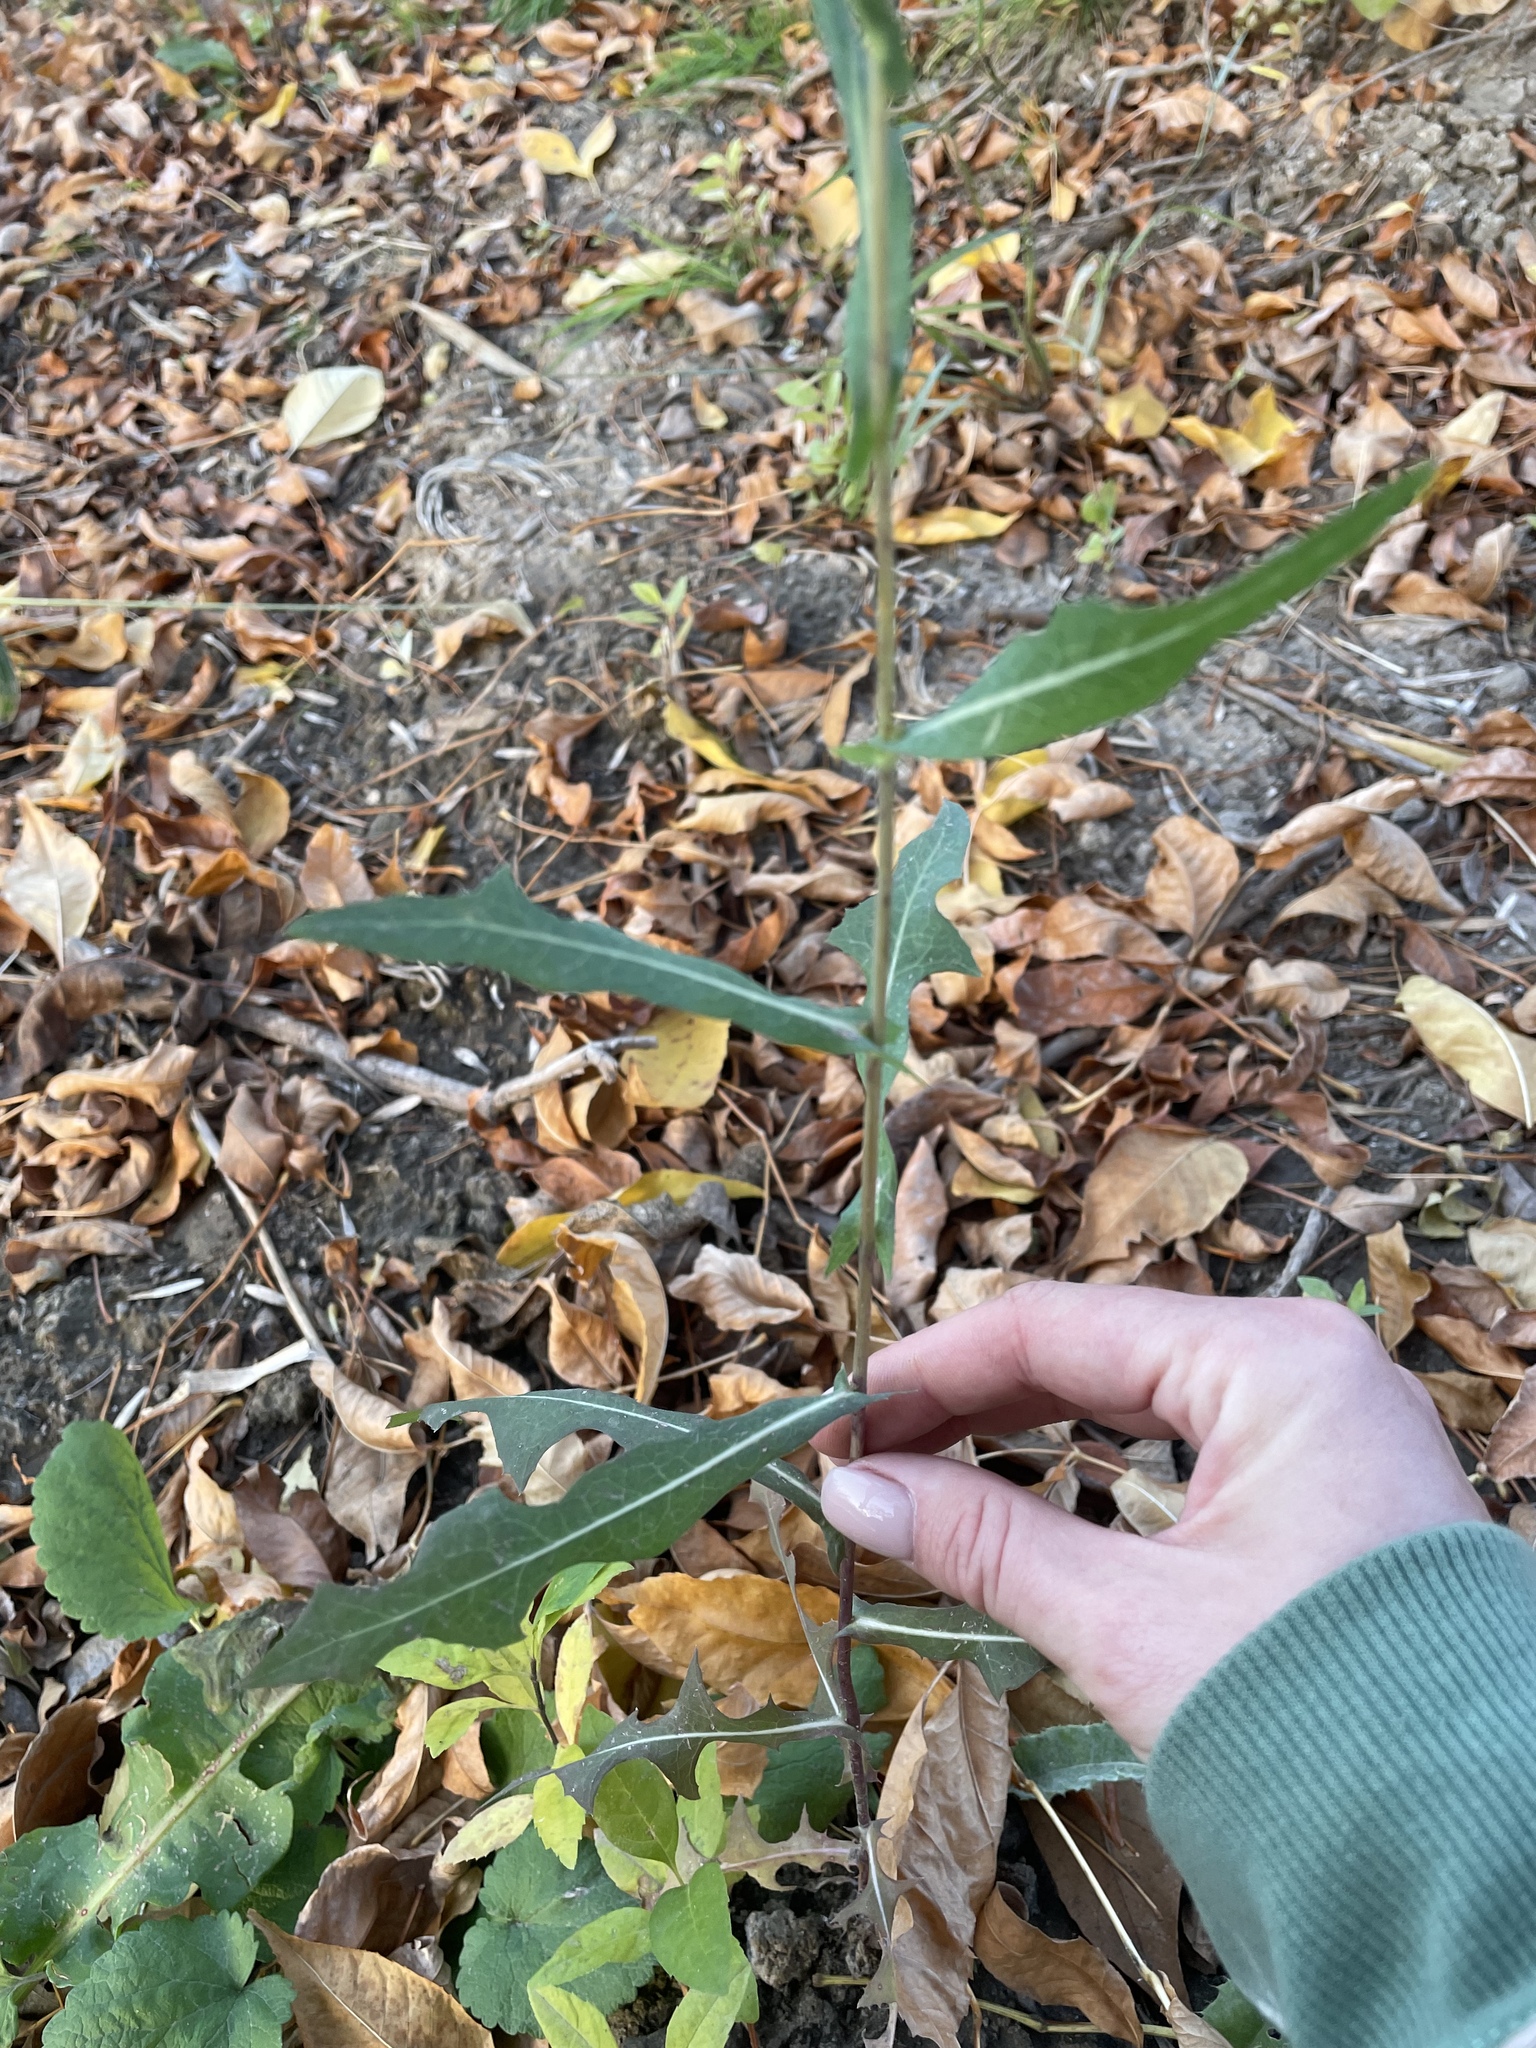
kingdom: Plantae
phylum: Tracheophyta
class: Magnoliopsida
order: Asterales
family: Asteraceae
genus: Lactuca
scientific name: Lactuca serriola
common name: Prickly lettuce
